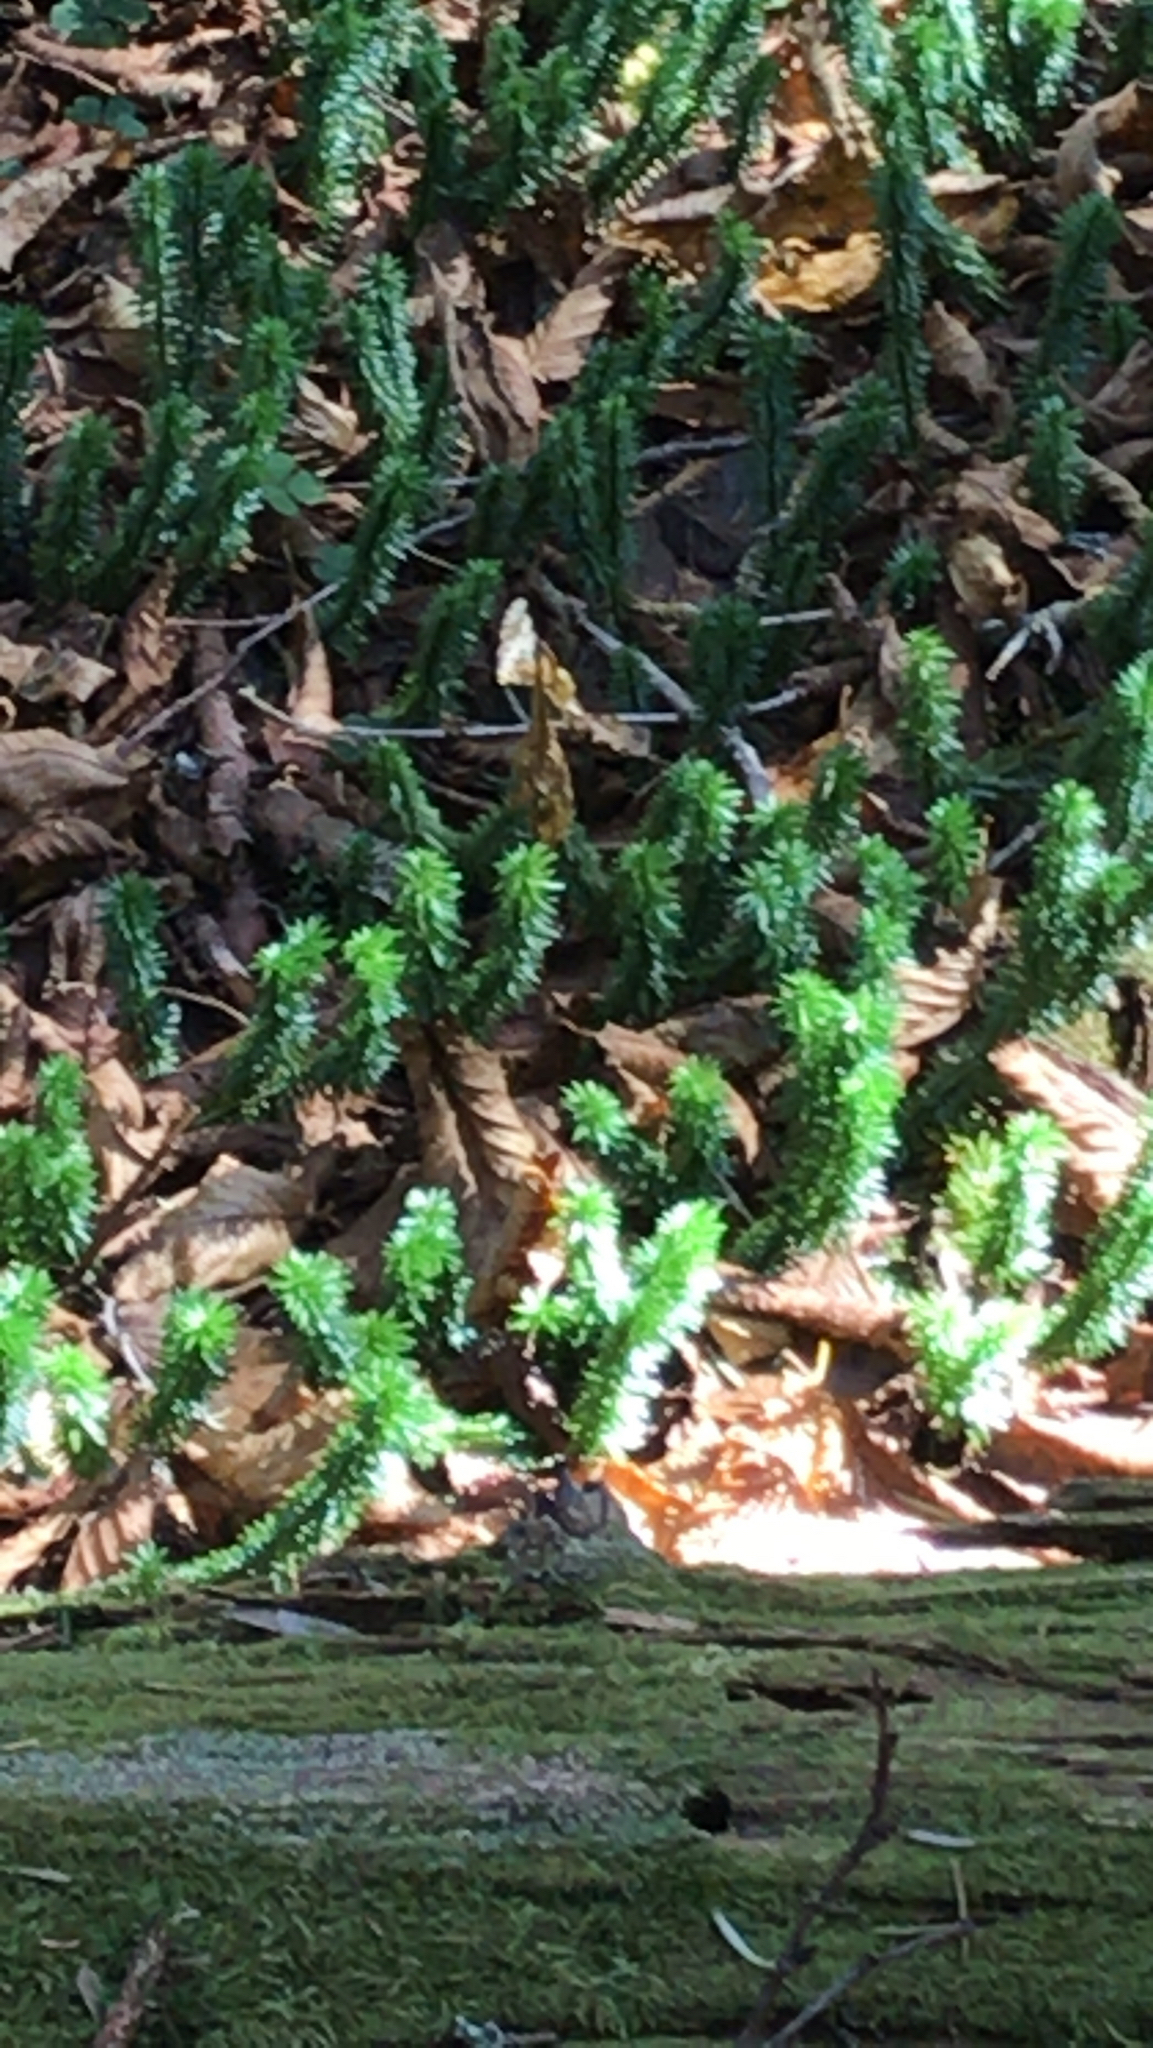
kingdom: Plantae
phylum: Tracheophyta
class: Lycopodiopsida
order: Lycopodiales
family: Lycopodiaceae
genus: Huperzia
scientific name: Huperzia lucidula
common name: Shining clubmoss
